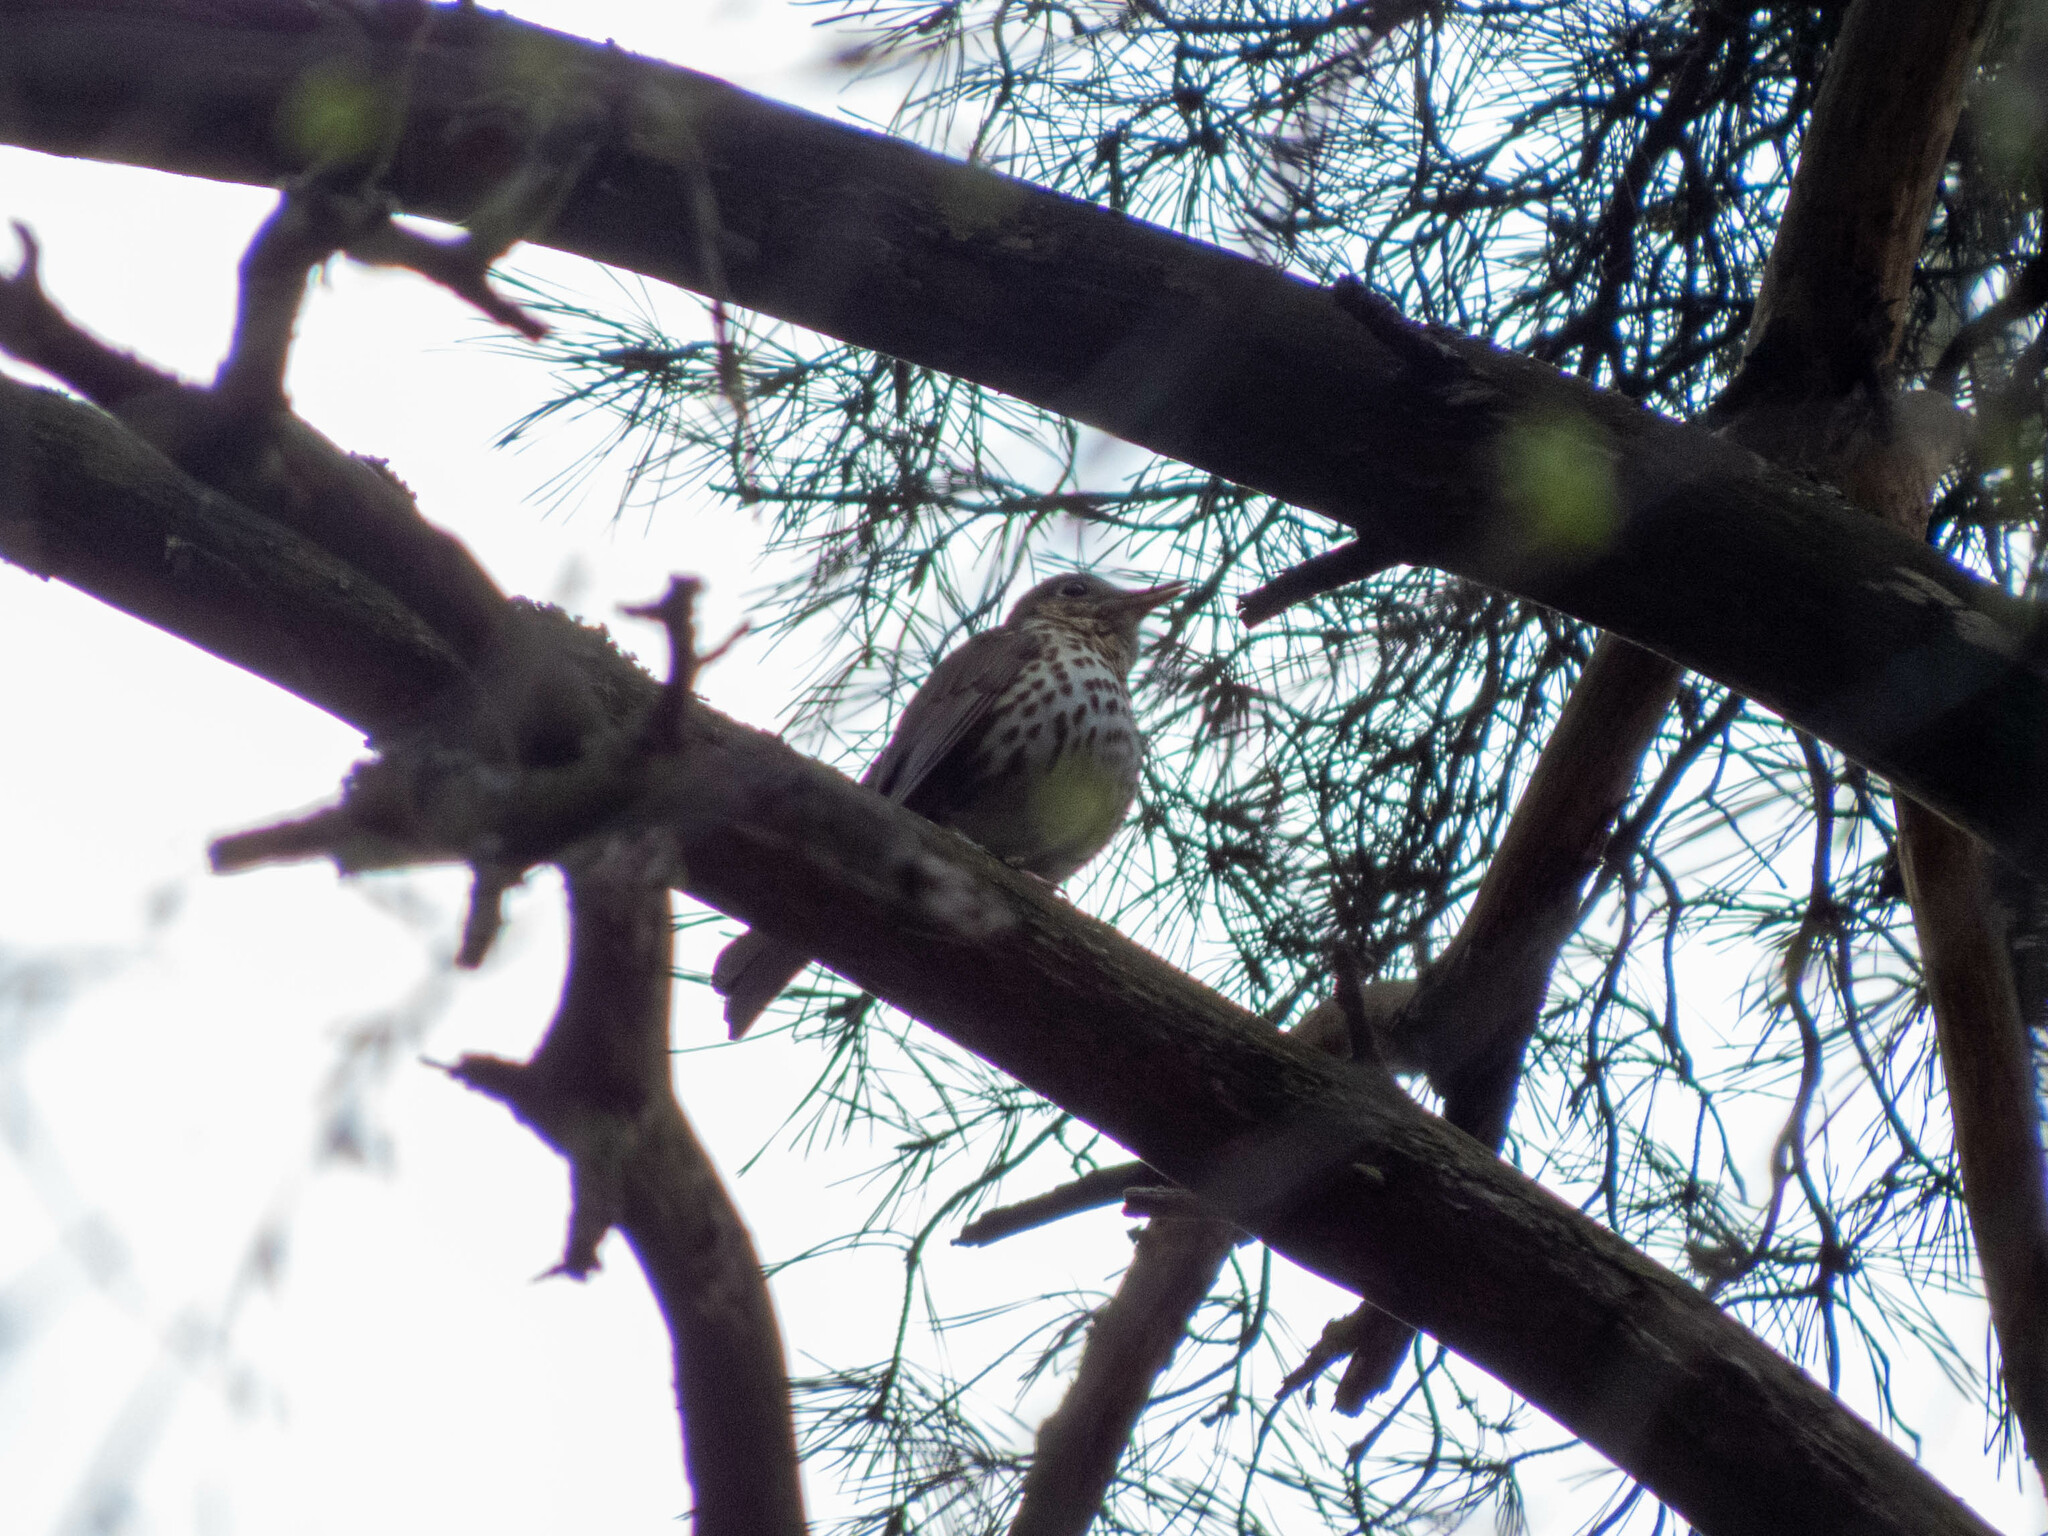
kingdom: Animalia
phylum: Chordata
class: Aves
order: Passeriformes
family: Turdidae
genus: Turdus
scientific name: Turdus philomelos
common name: Song thrush
